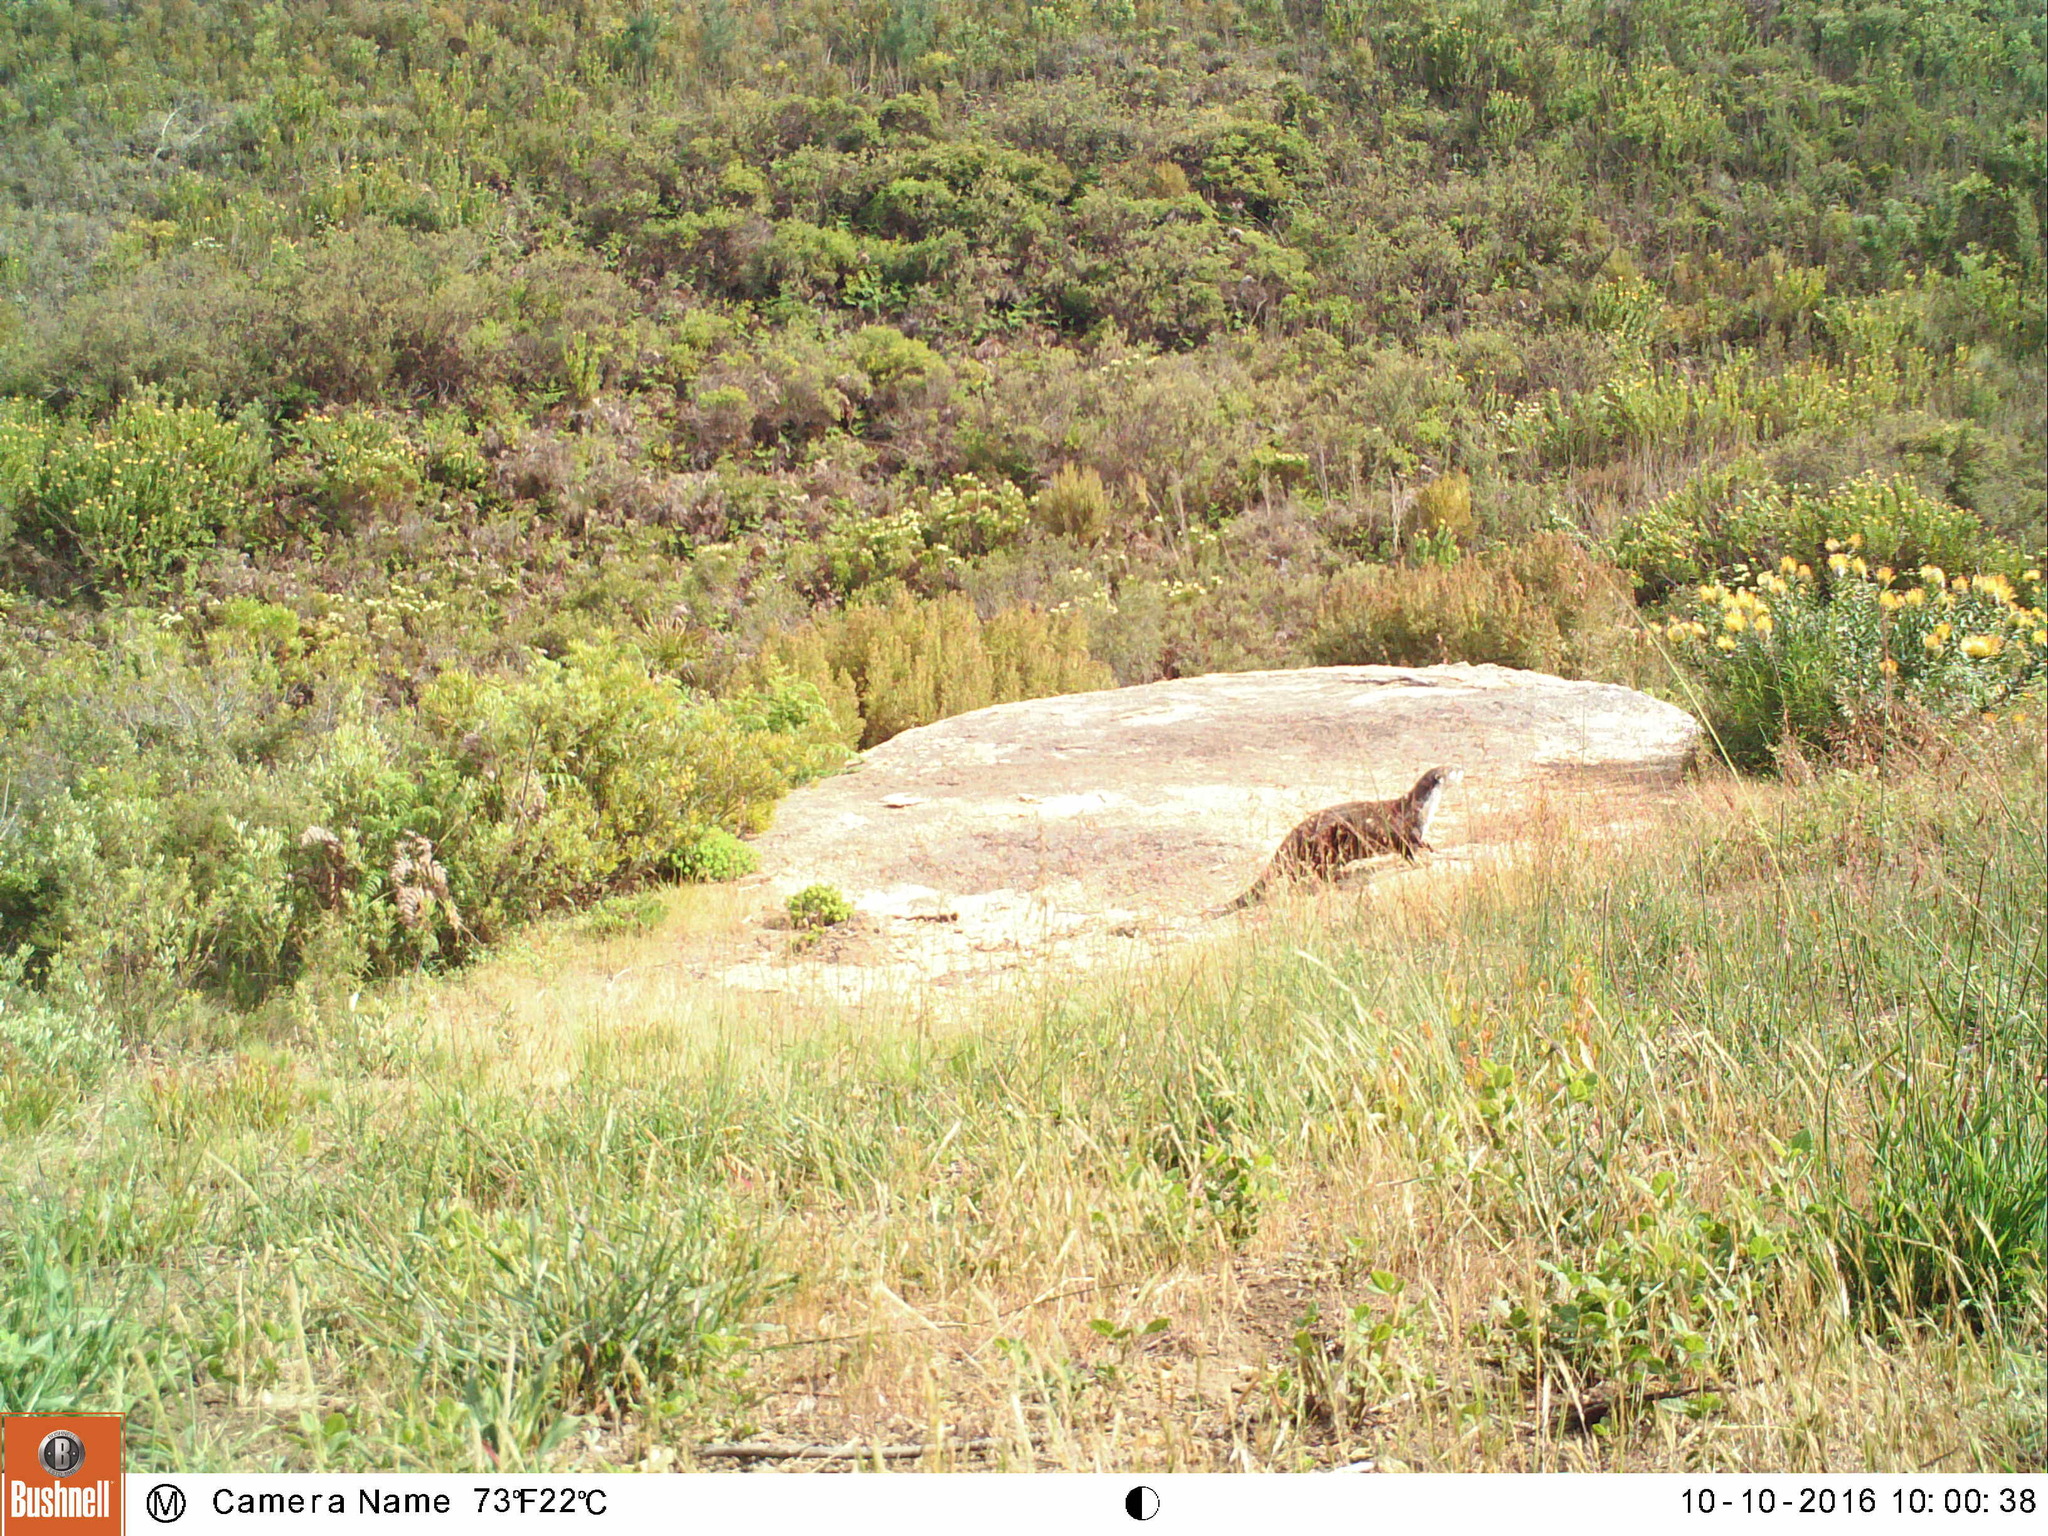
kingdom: Animalia
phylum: Chordata
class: Mammalia
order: Carnivora
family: Mustelidae
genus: Aonyx
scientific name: Aonyx capensis
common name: African clawless otter
